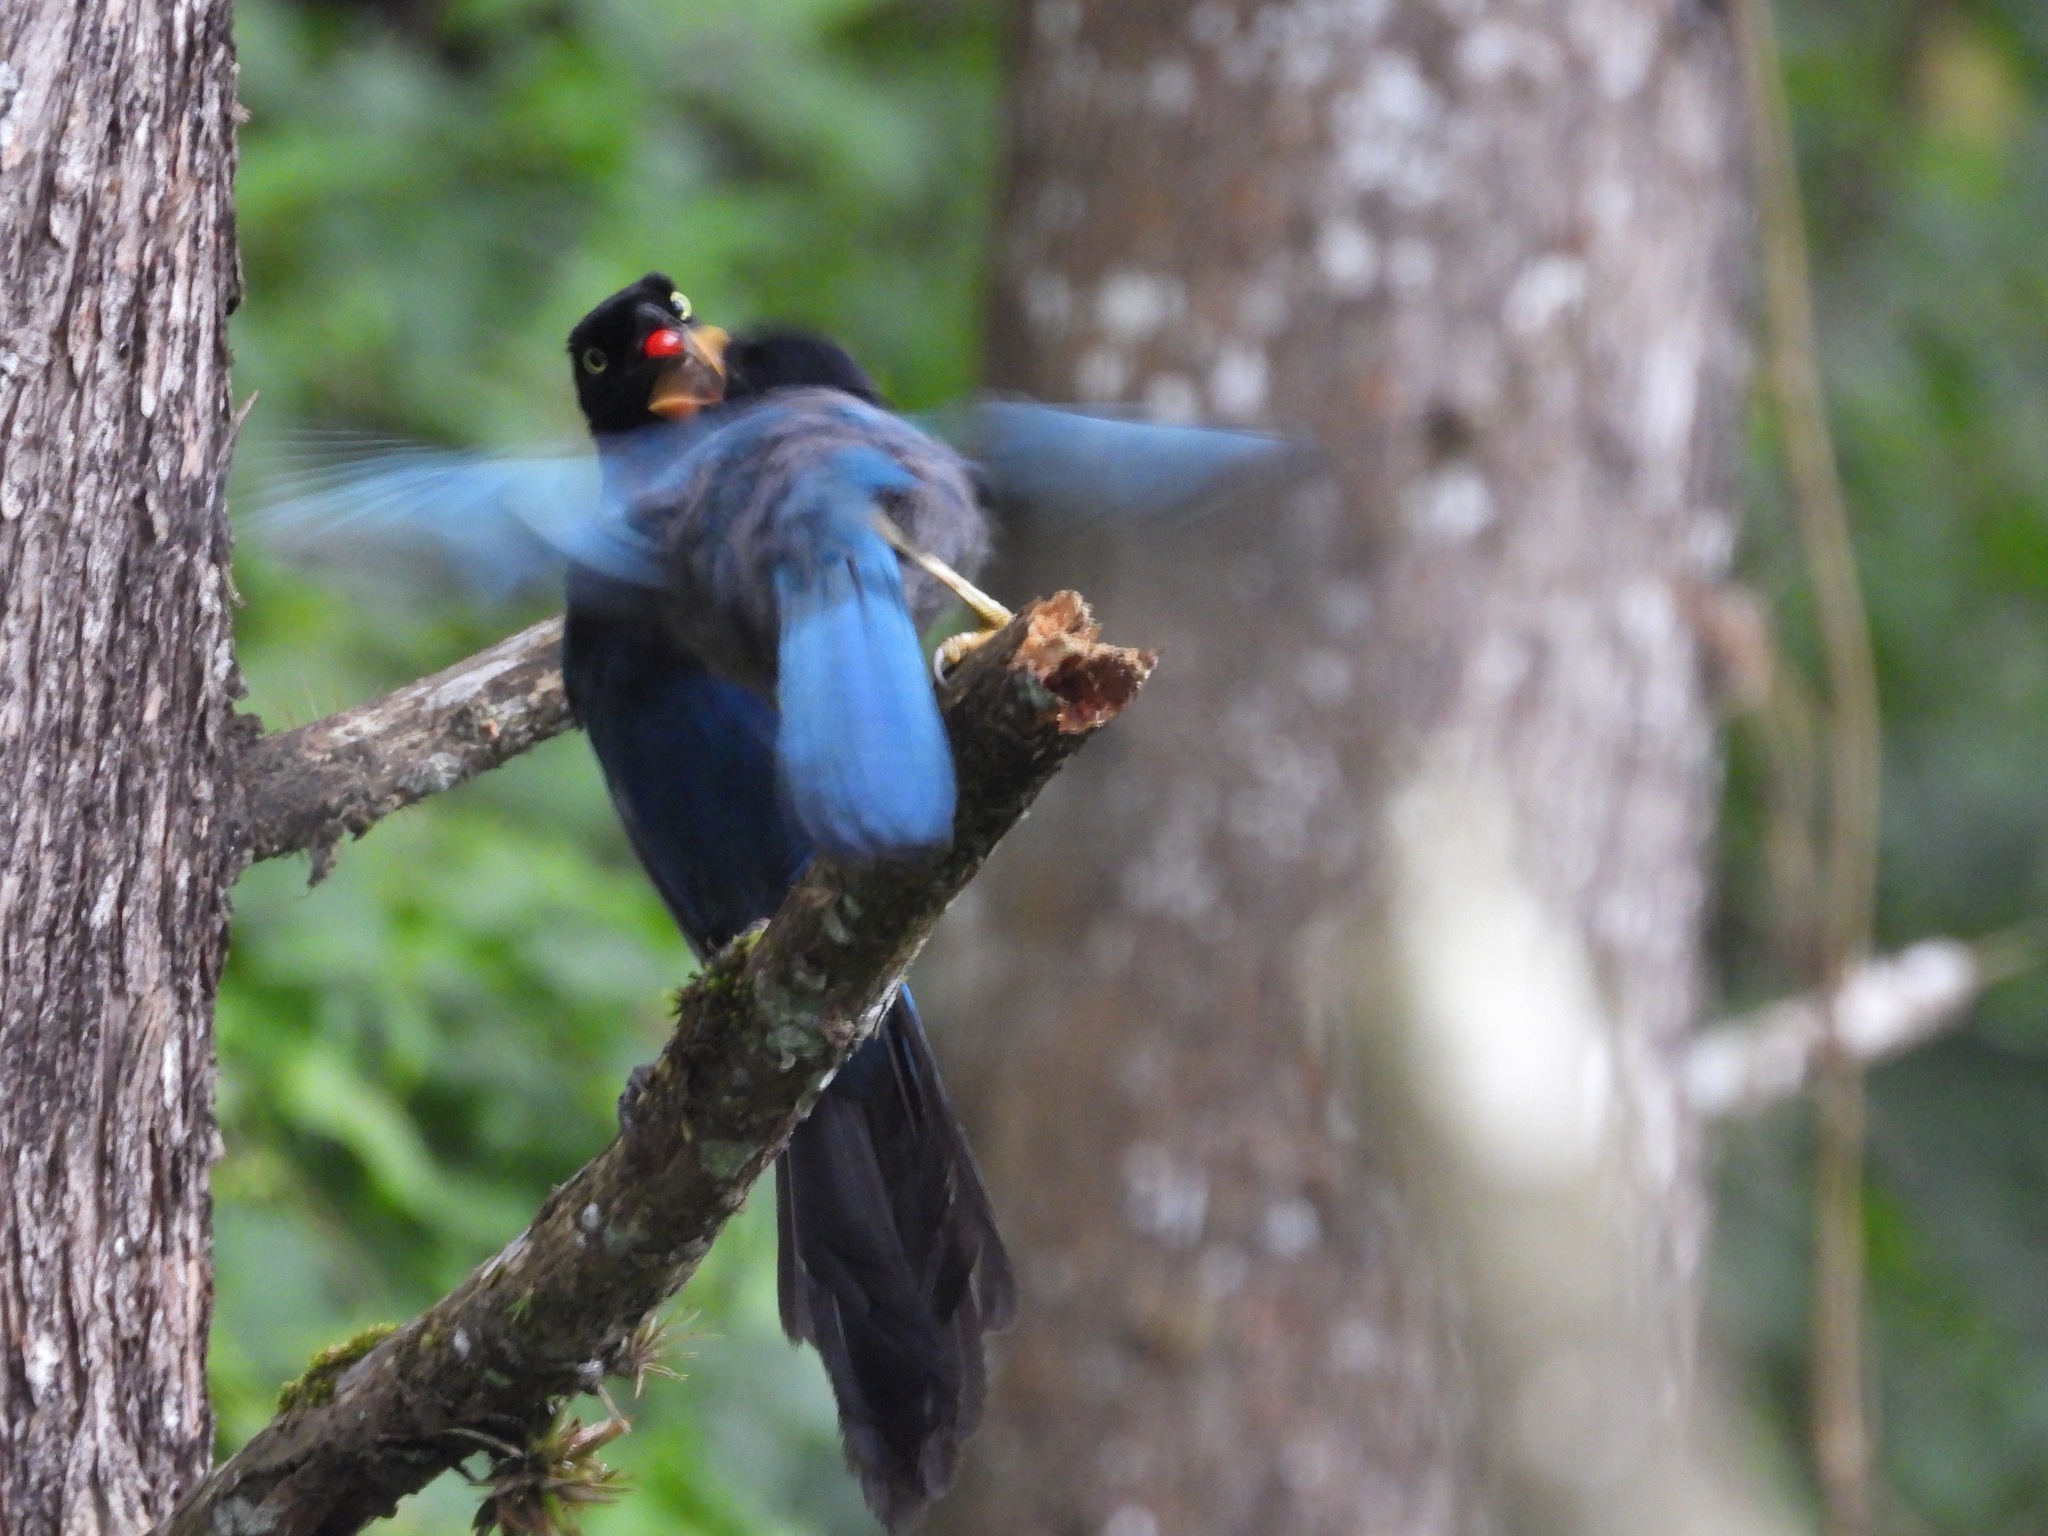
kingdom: Animalia
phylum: Chordata
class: Aves
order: Passeriformes
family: Corvidae
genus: Cyanocorax
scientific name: Cyanocorax melanocyaneus
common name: Bushy-crested jay
